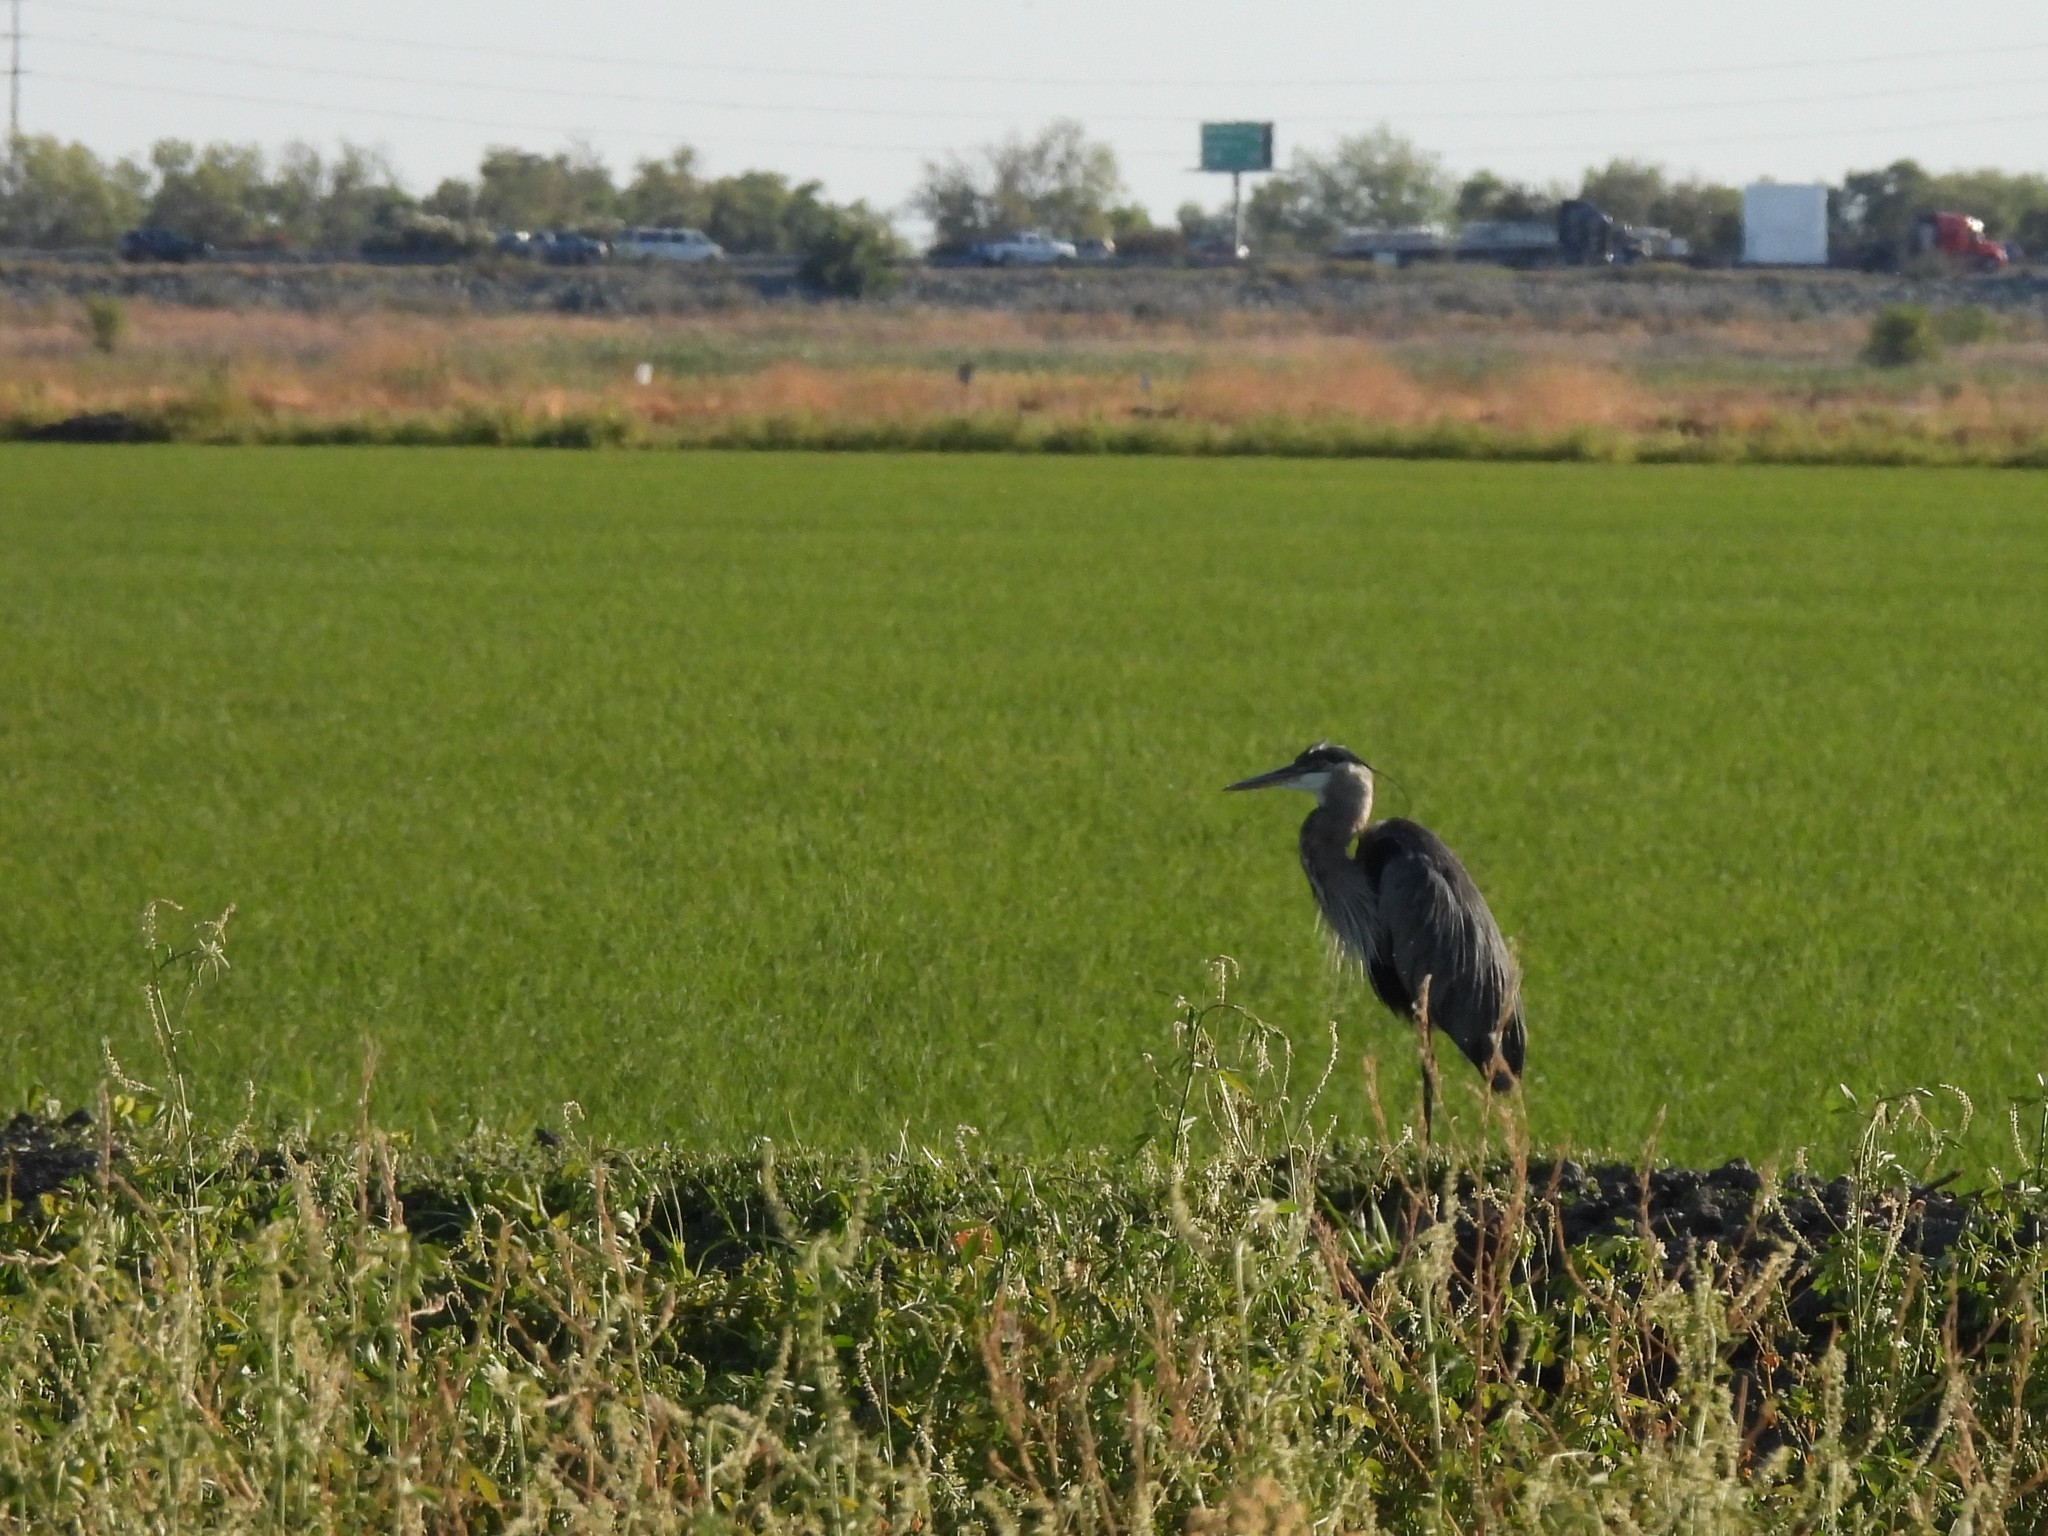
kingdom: Animalia
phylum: Chordata
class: Aves
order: Pelecaniformes
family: Ardeidae
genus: Ardea
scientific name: Ardea herodias
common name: Great blue heron
